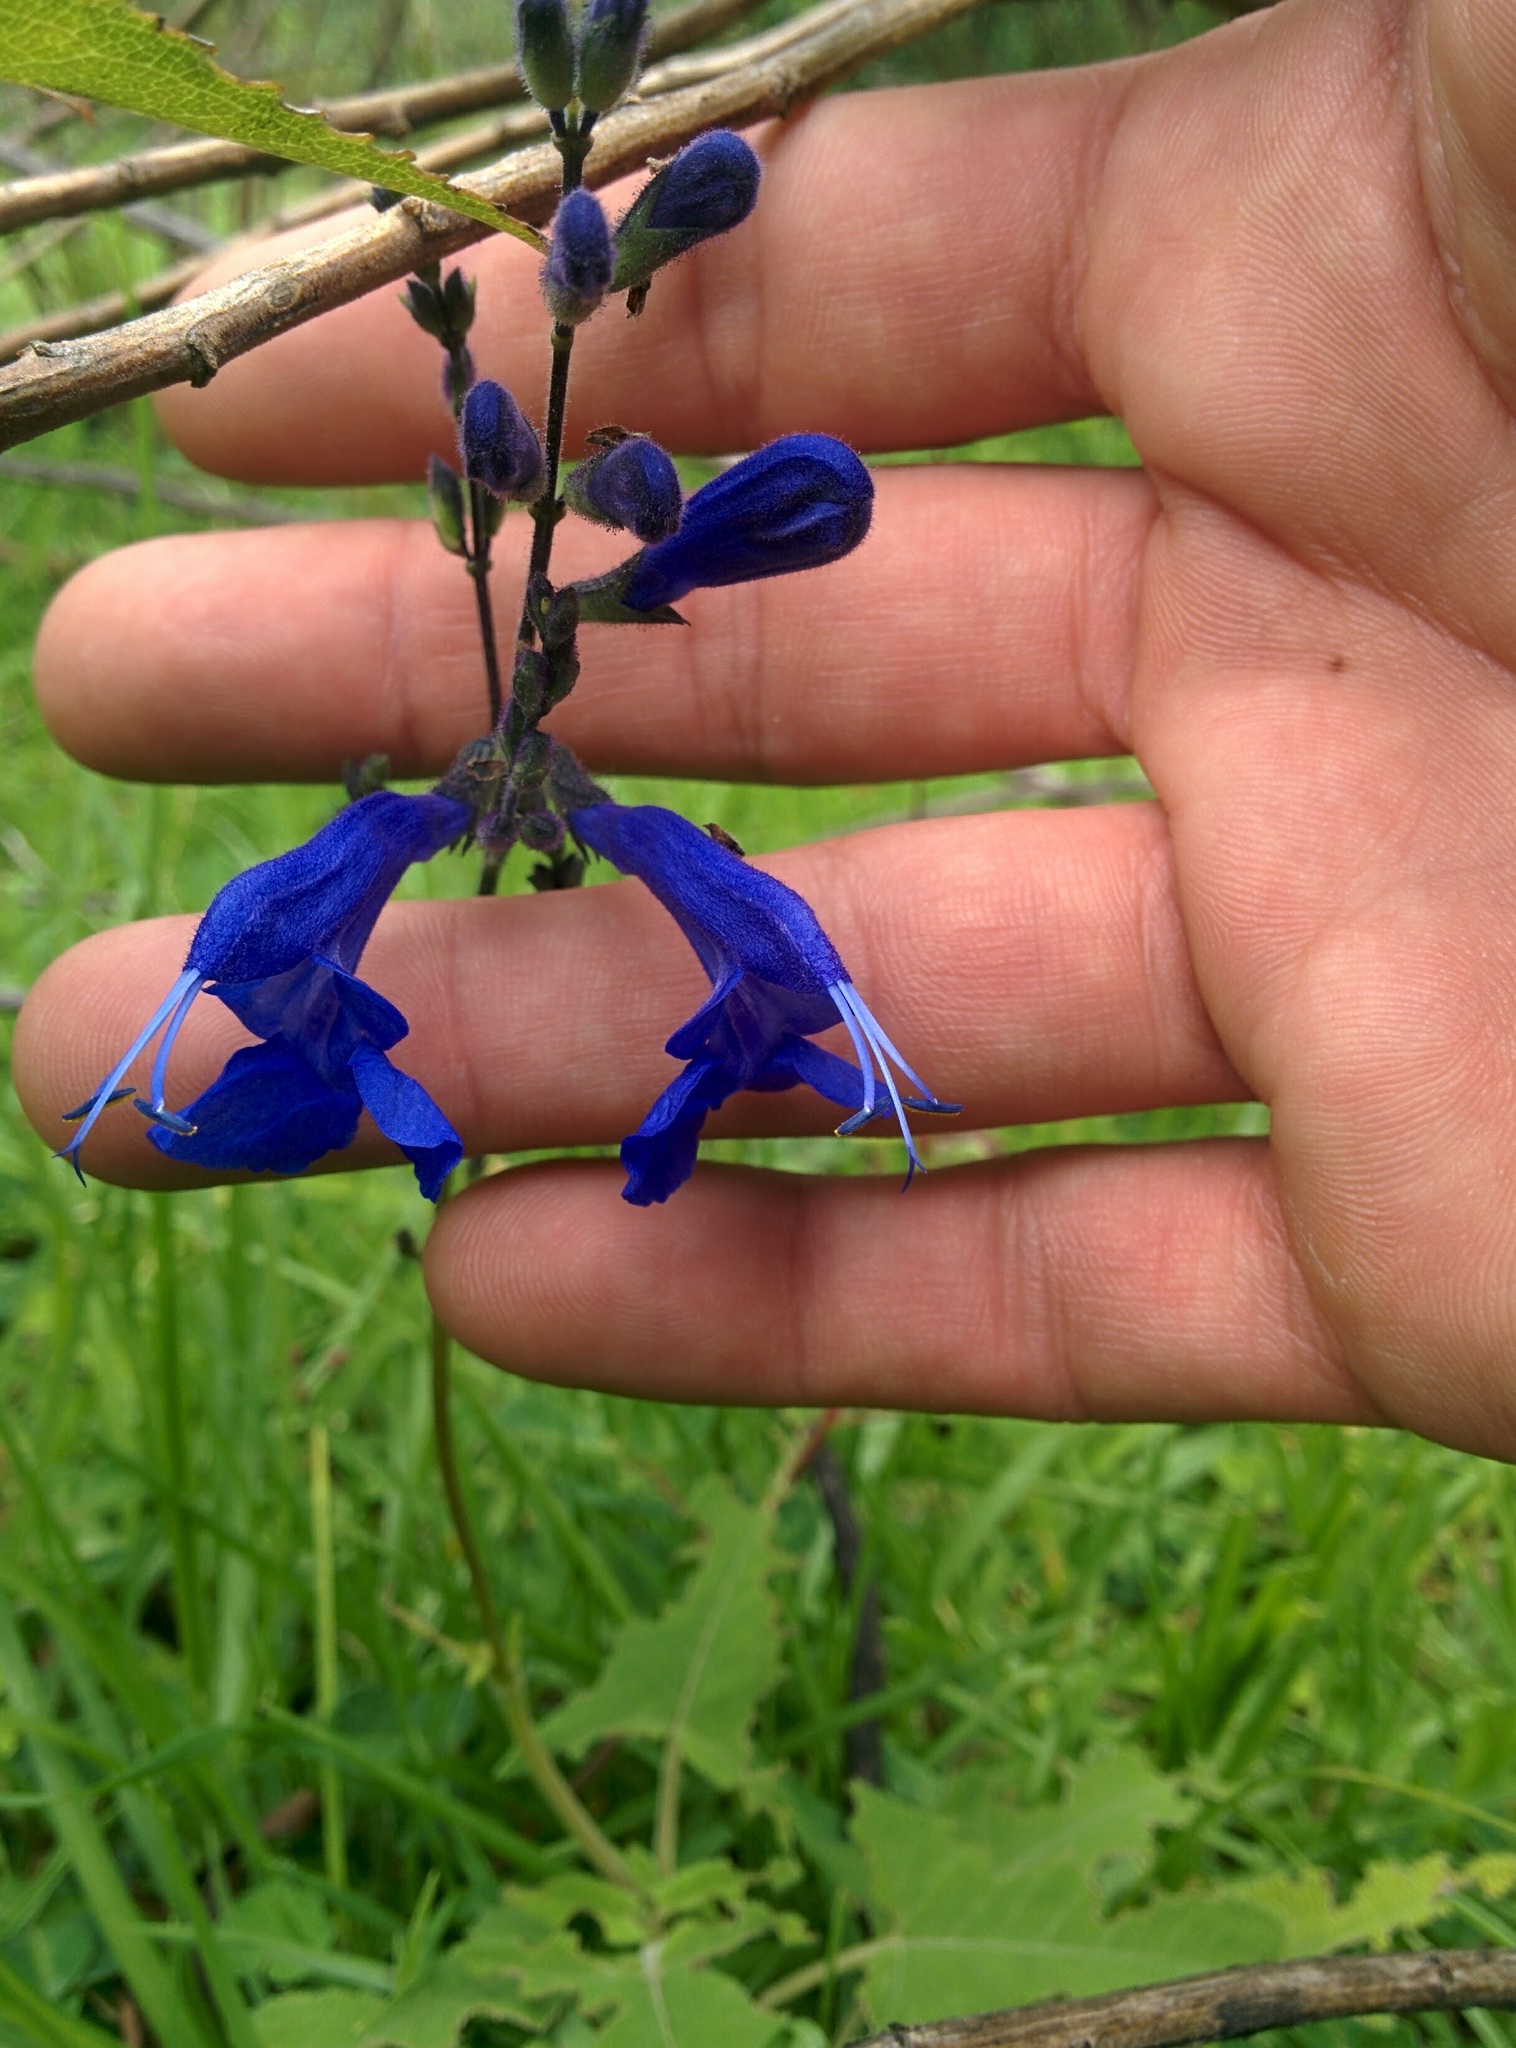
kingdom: Plantae
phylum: Tracheophyta
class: Magnoliopsida
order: Lamiales
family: Lamiaceae
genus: Salvia
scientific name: Salvia sagittata
